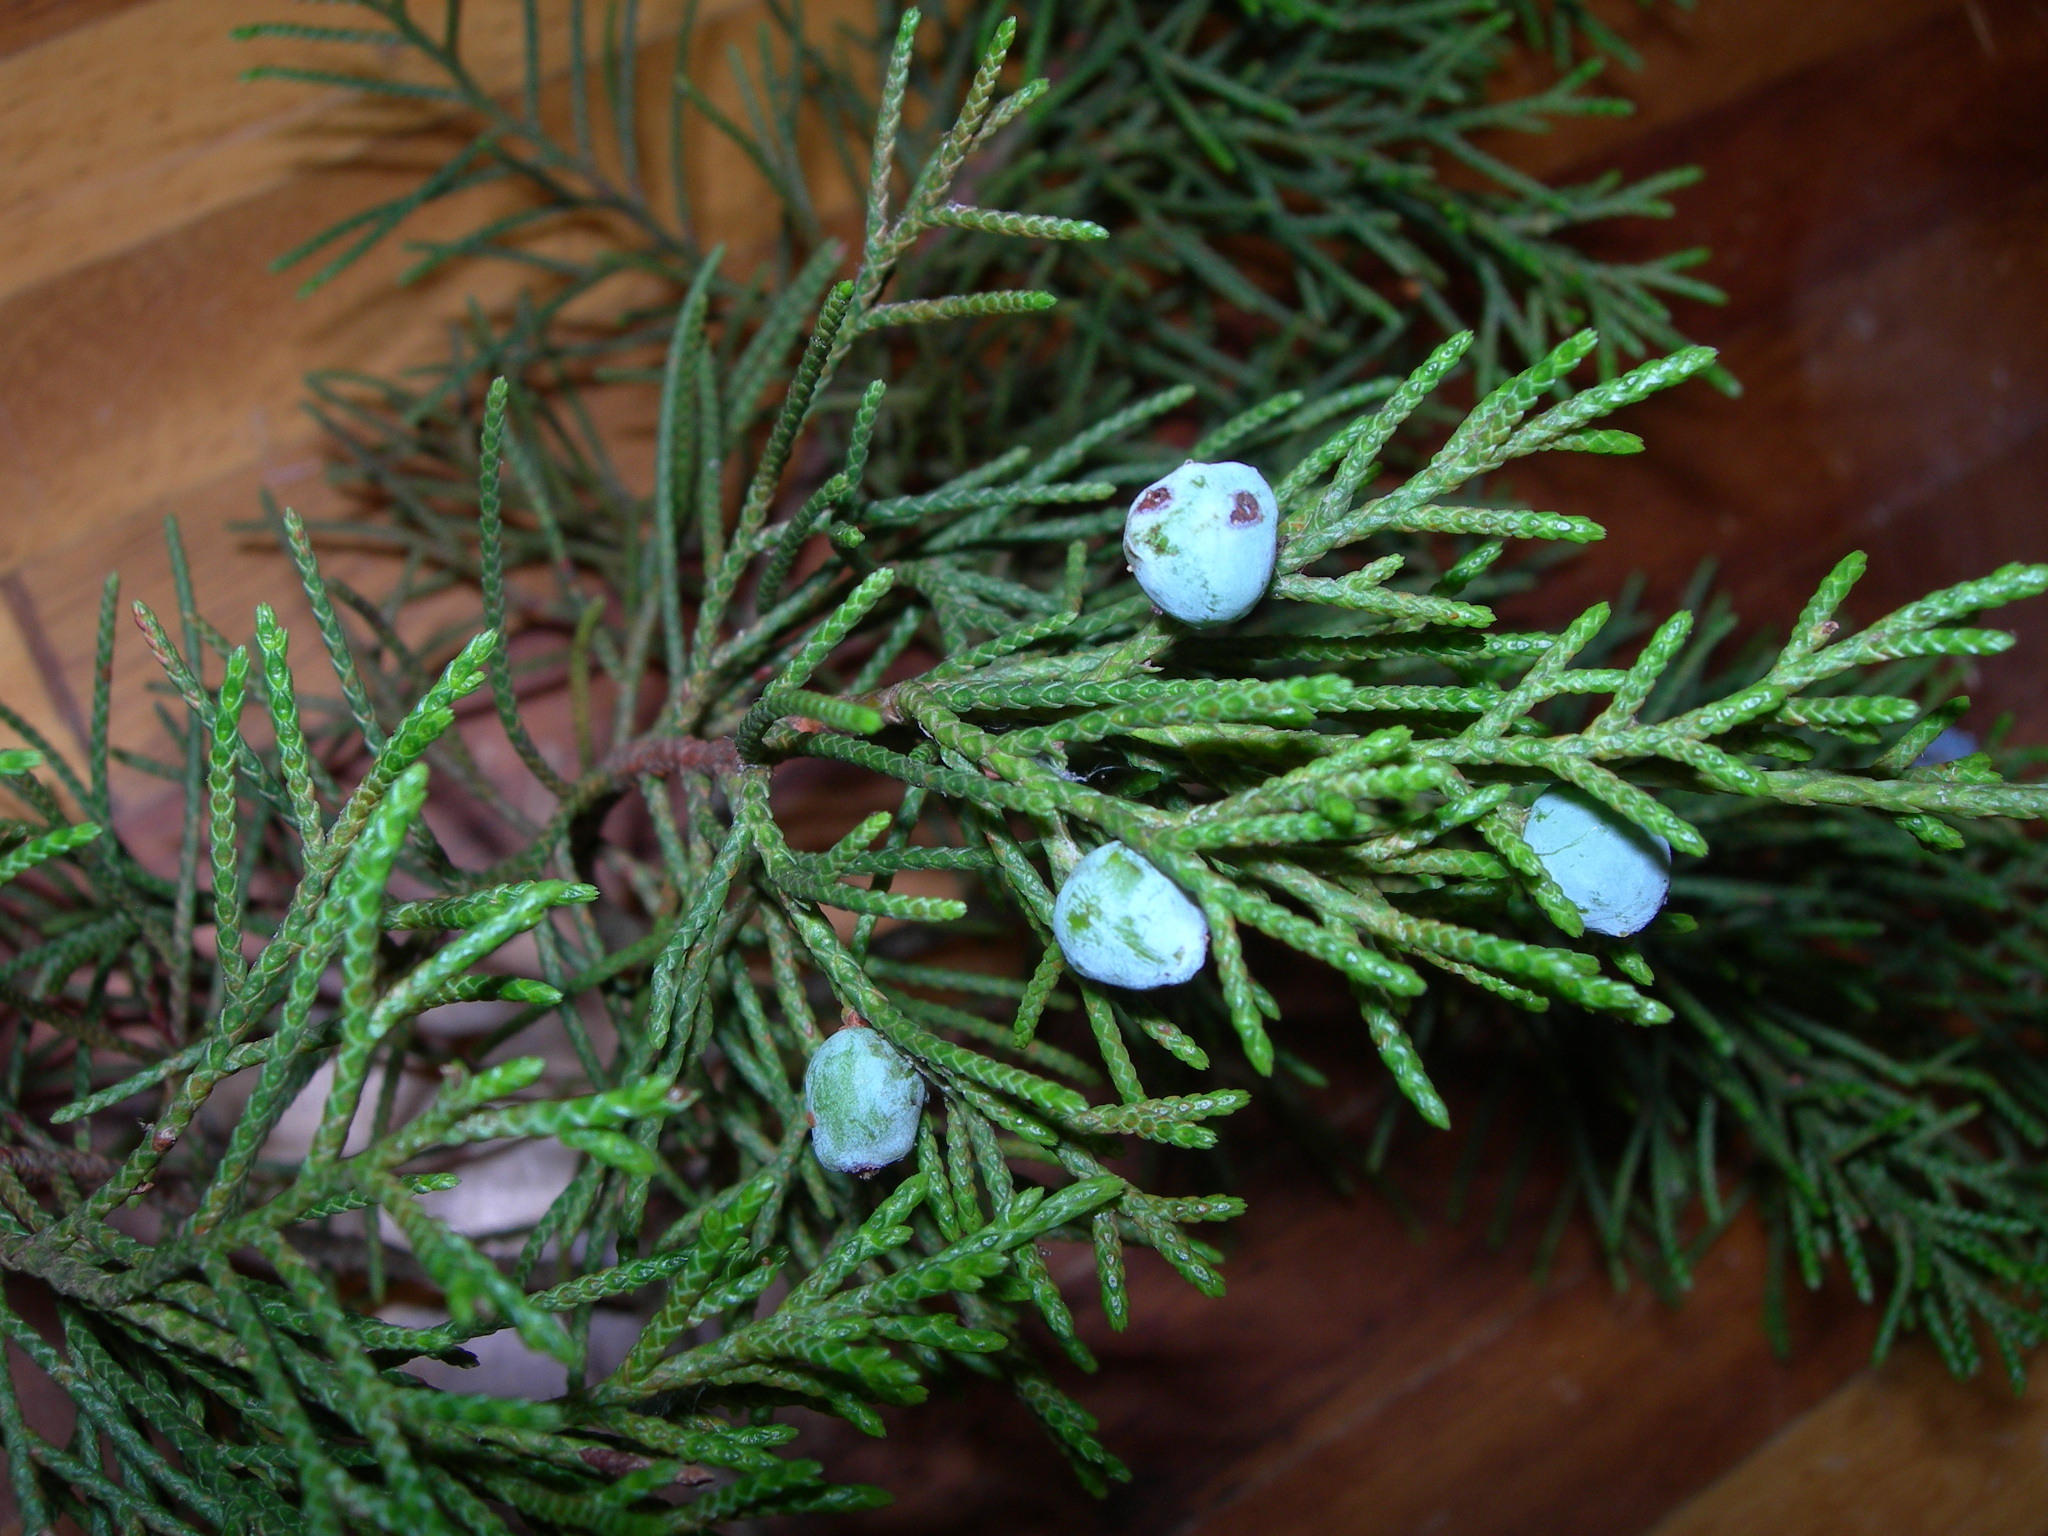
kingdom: Plantae
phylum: Tracheophyta
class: Pinopsida
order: Pinales
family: Cupressaceae
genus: Juniperus
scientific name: Juniperus comitana
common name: Comitan juniper
